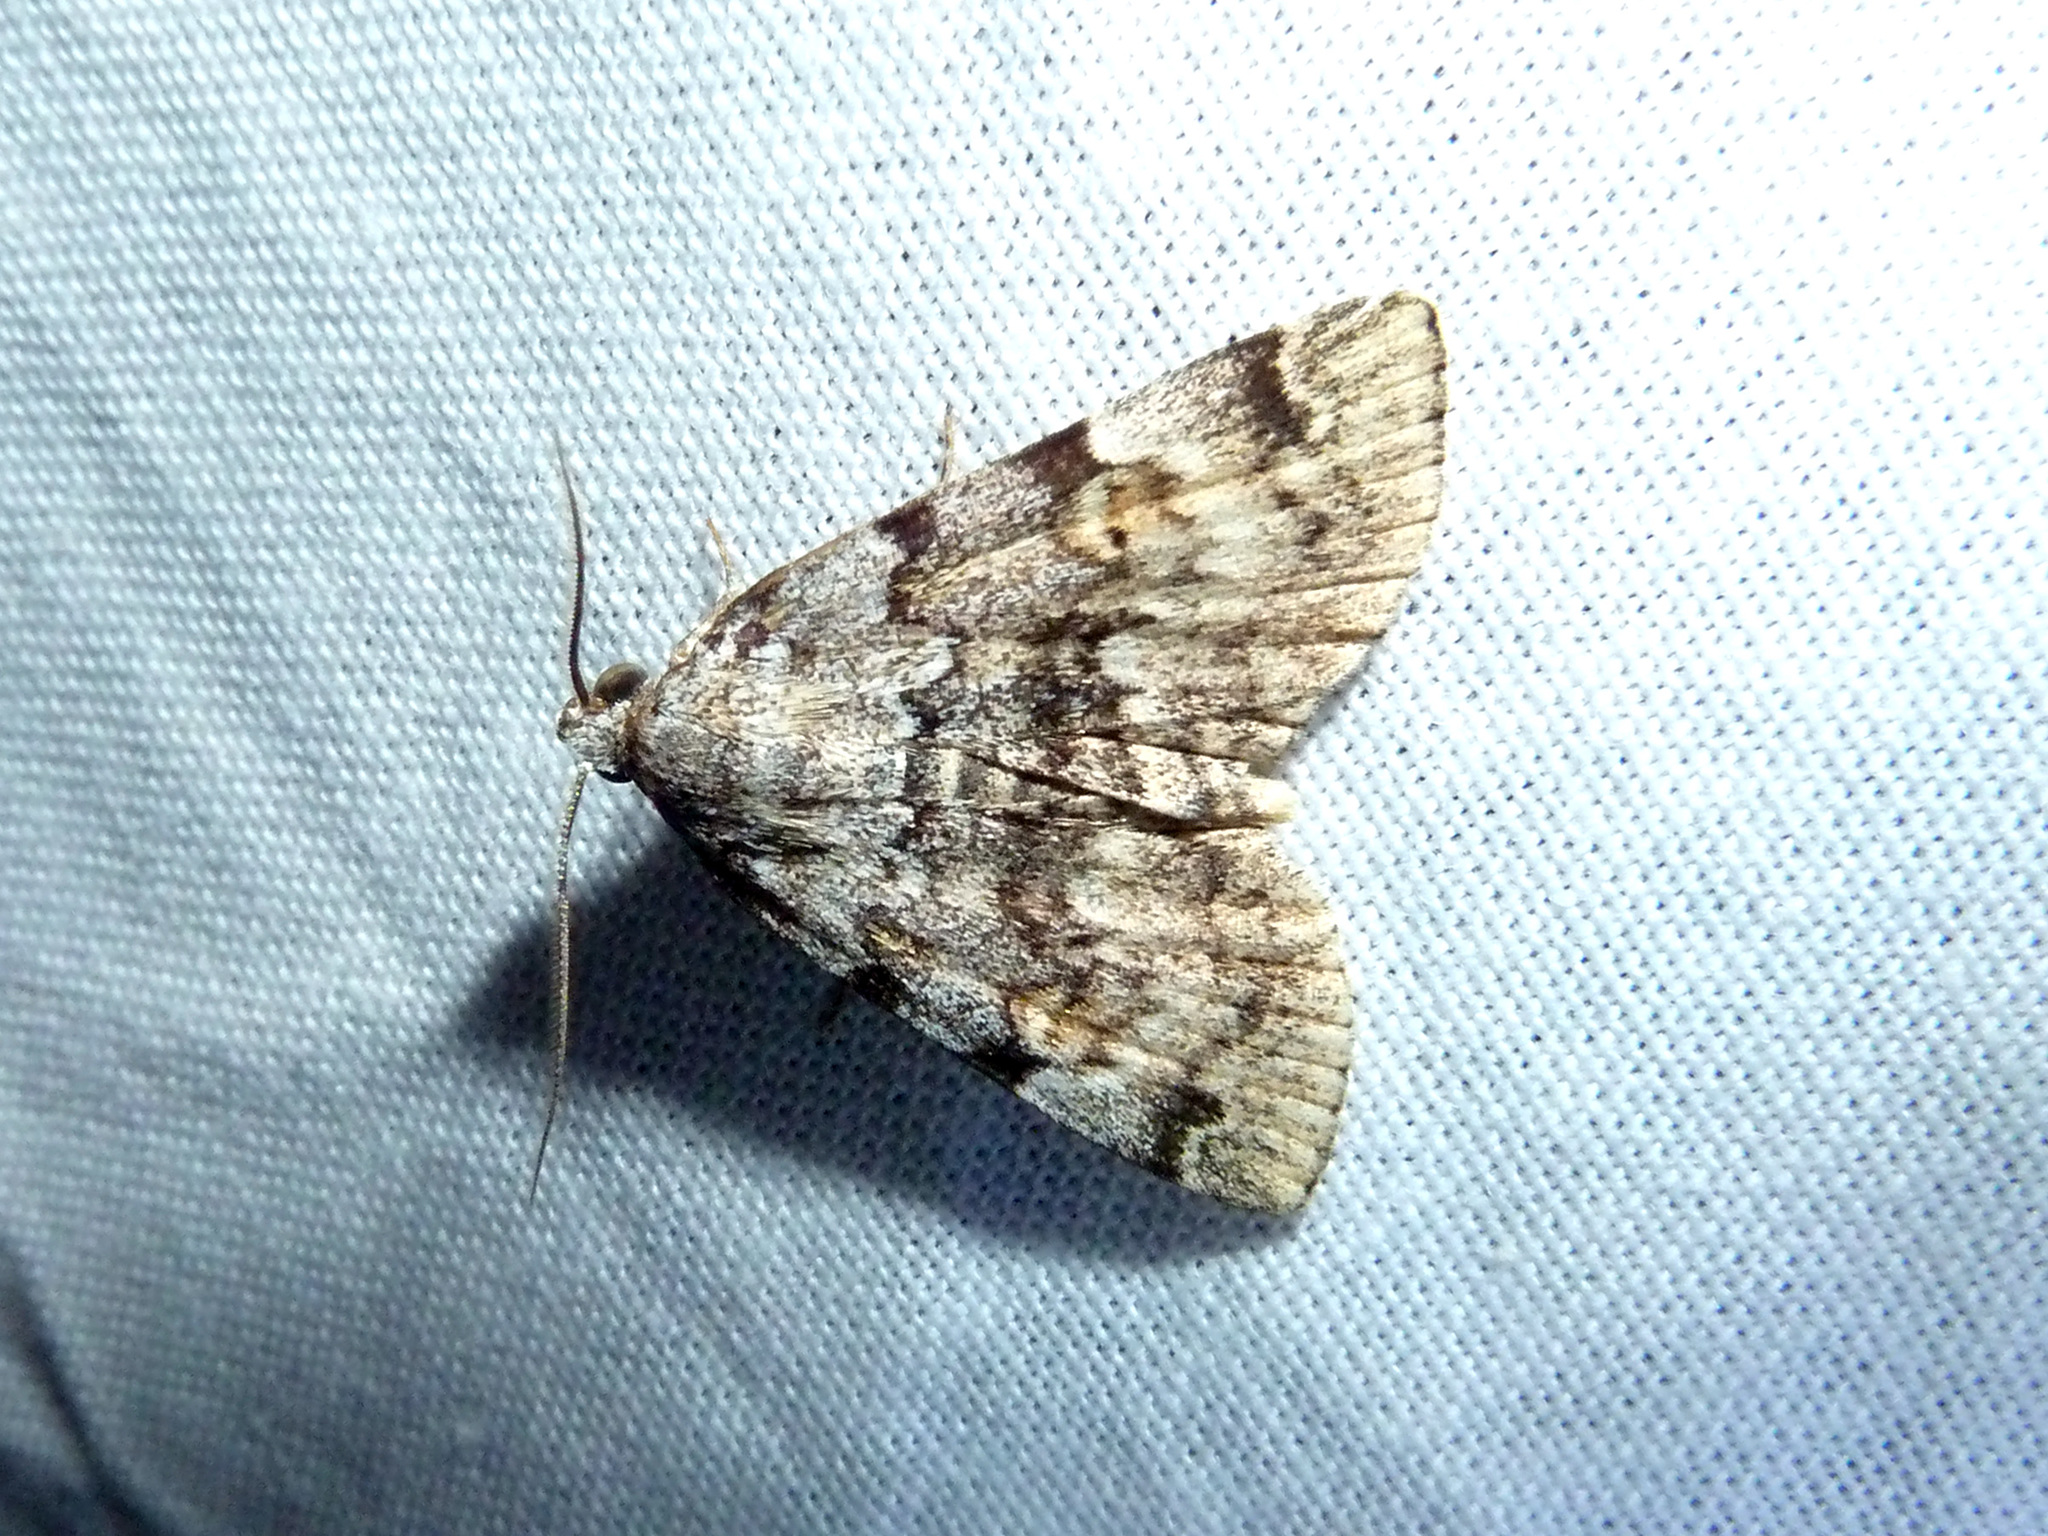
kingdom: Animalia
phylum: Arthropoda
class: Insecta
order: Lepidoptera
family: Erebidae
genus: Idia
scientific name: Idia americalis
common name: American idia moth
